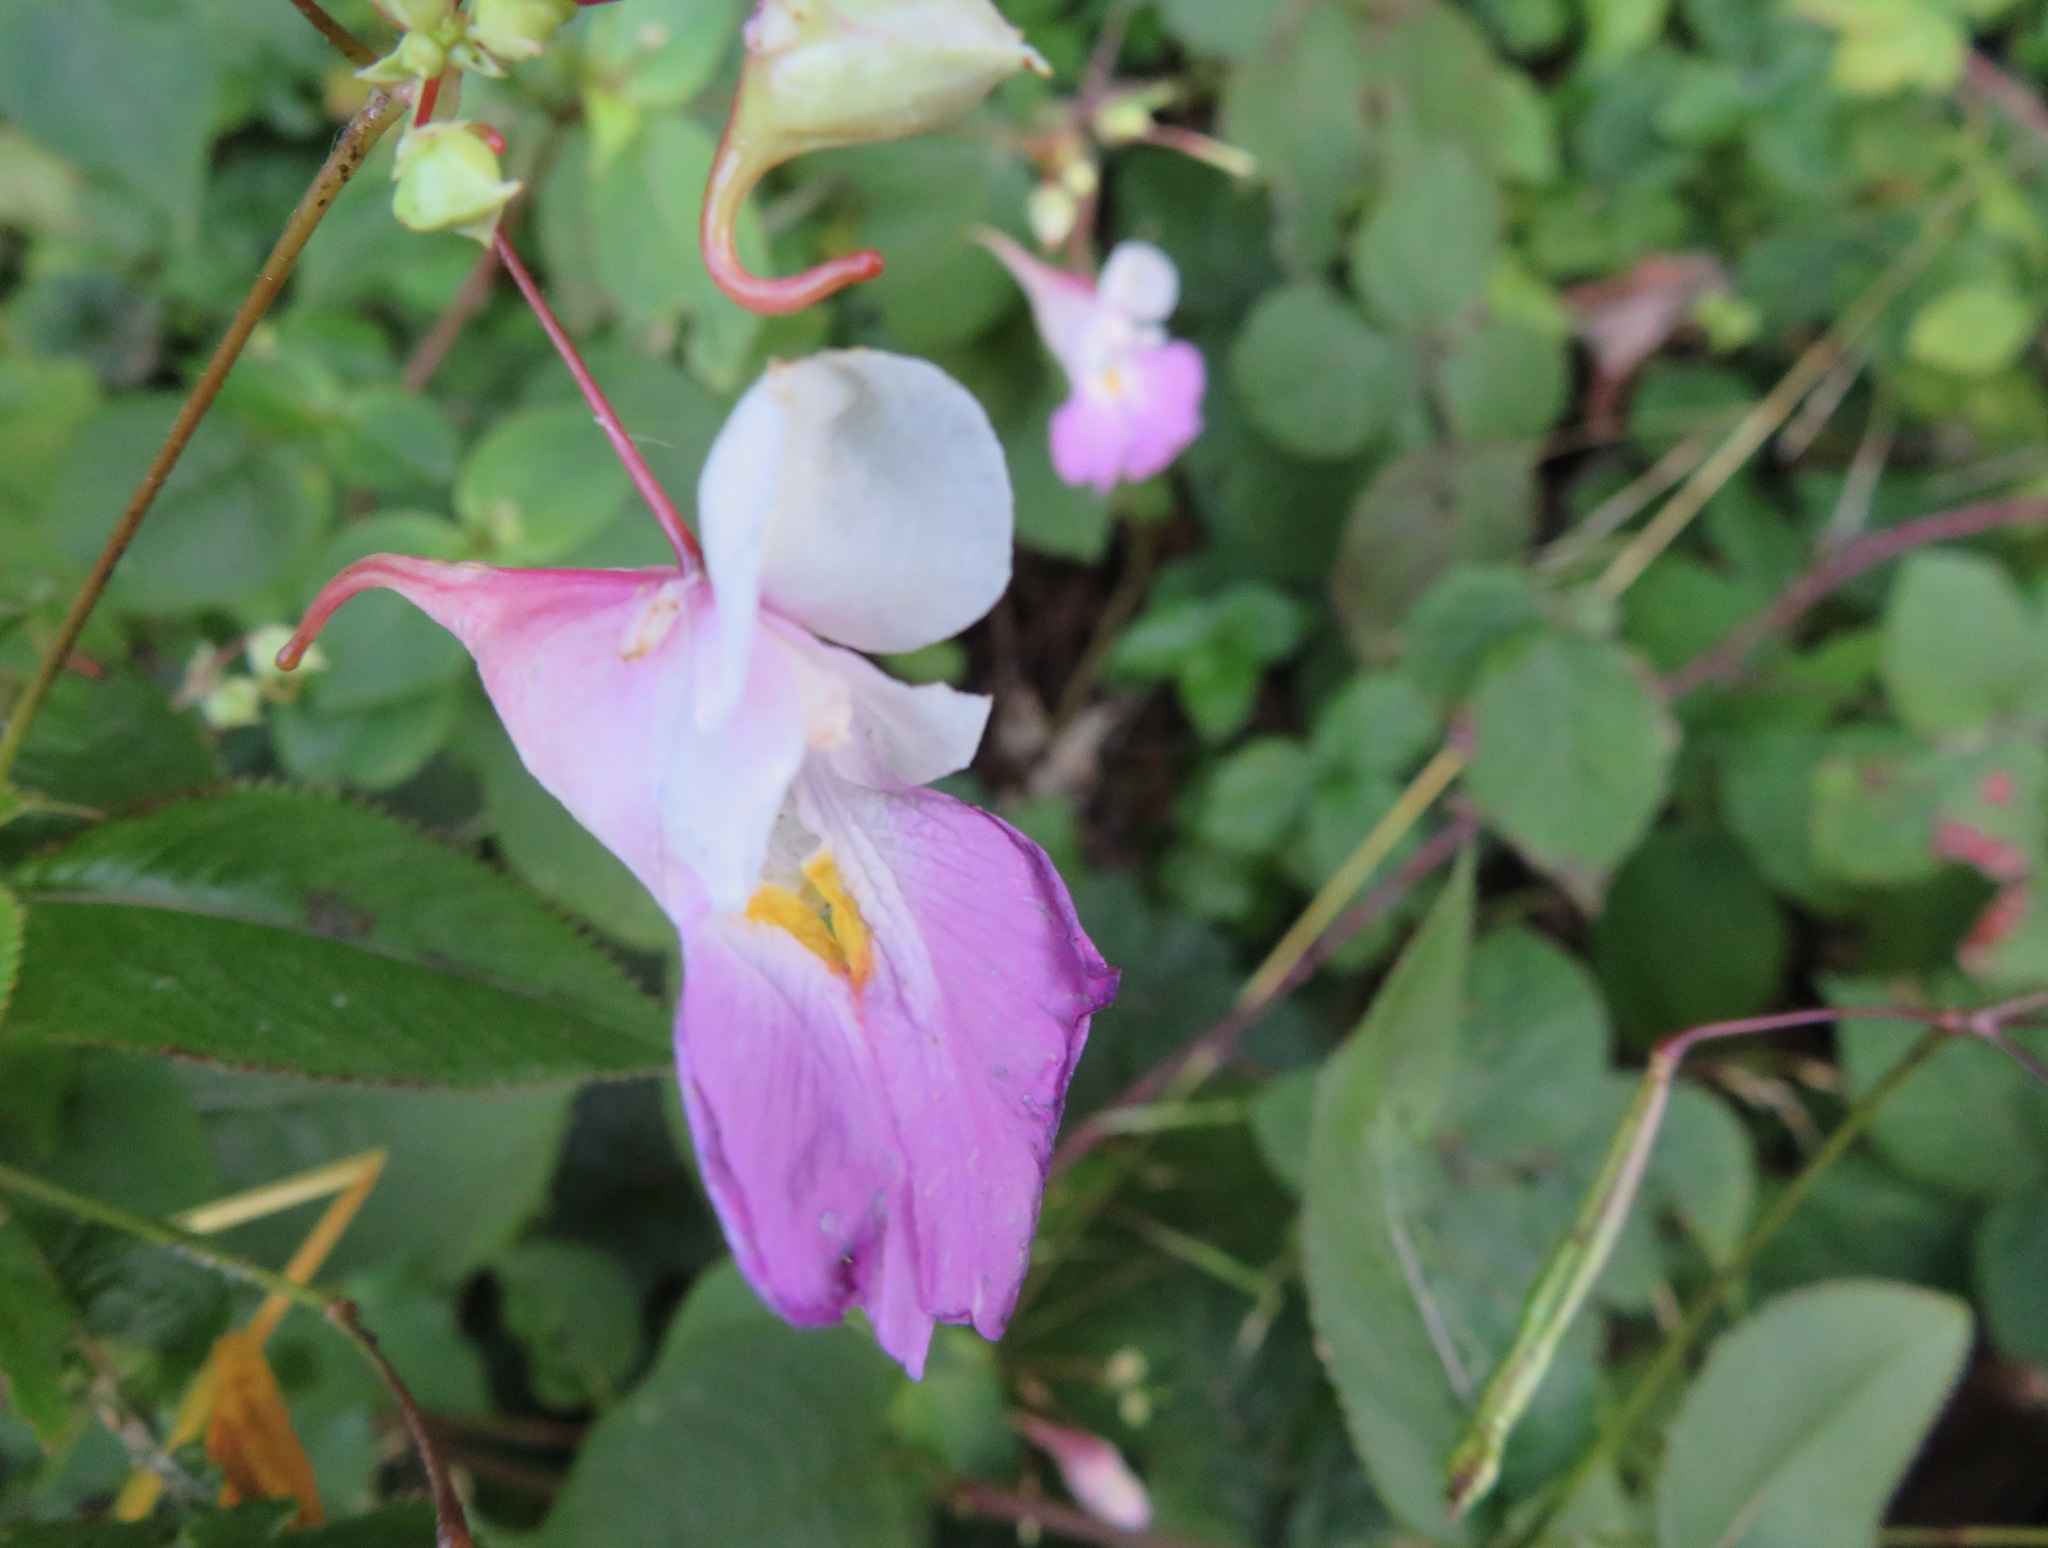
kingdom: Plantae
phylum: Tracheophyta
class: Magnoliopsida
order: Ericales
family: Balsaminaceae
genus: Impatiens
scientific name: Impatiens balfourii
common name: Balfour's touch-me-not
